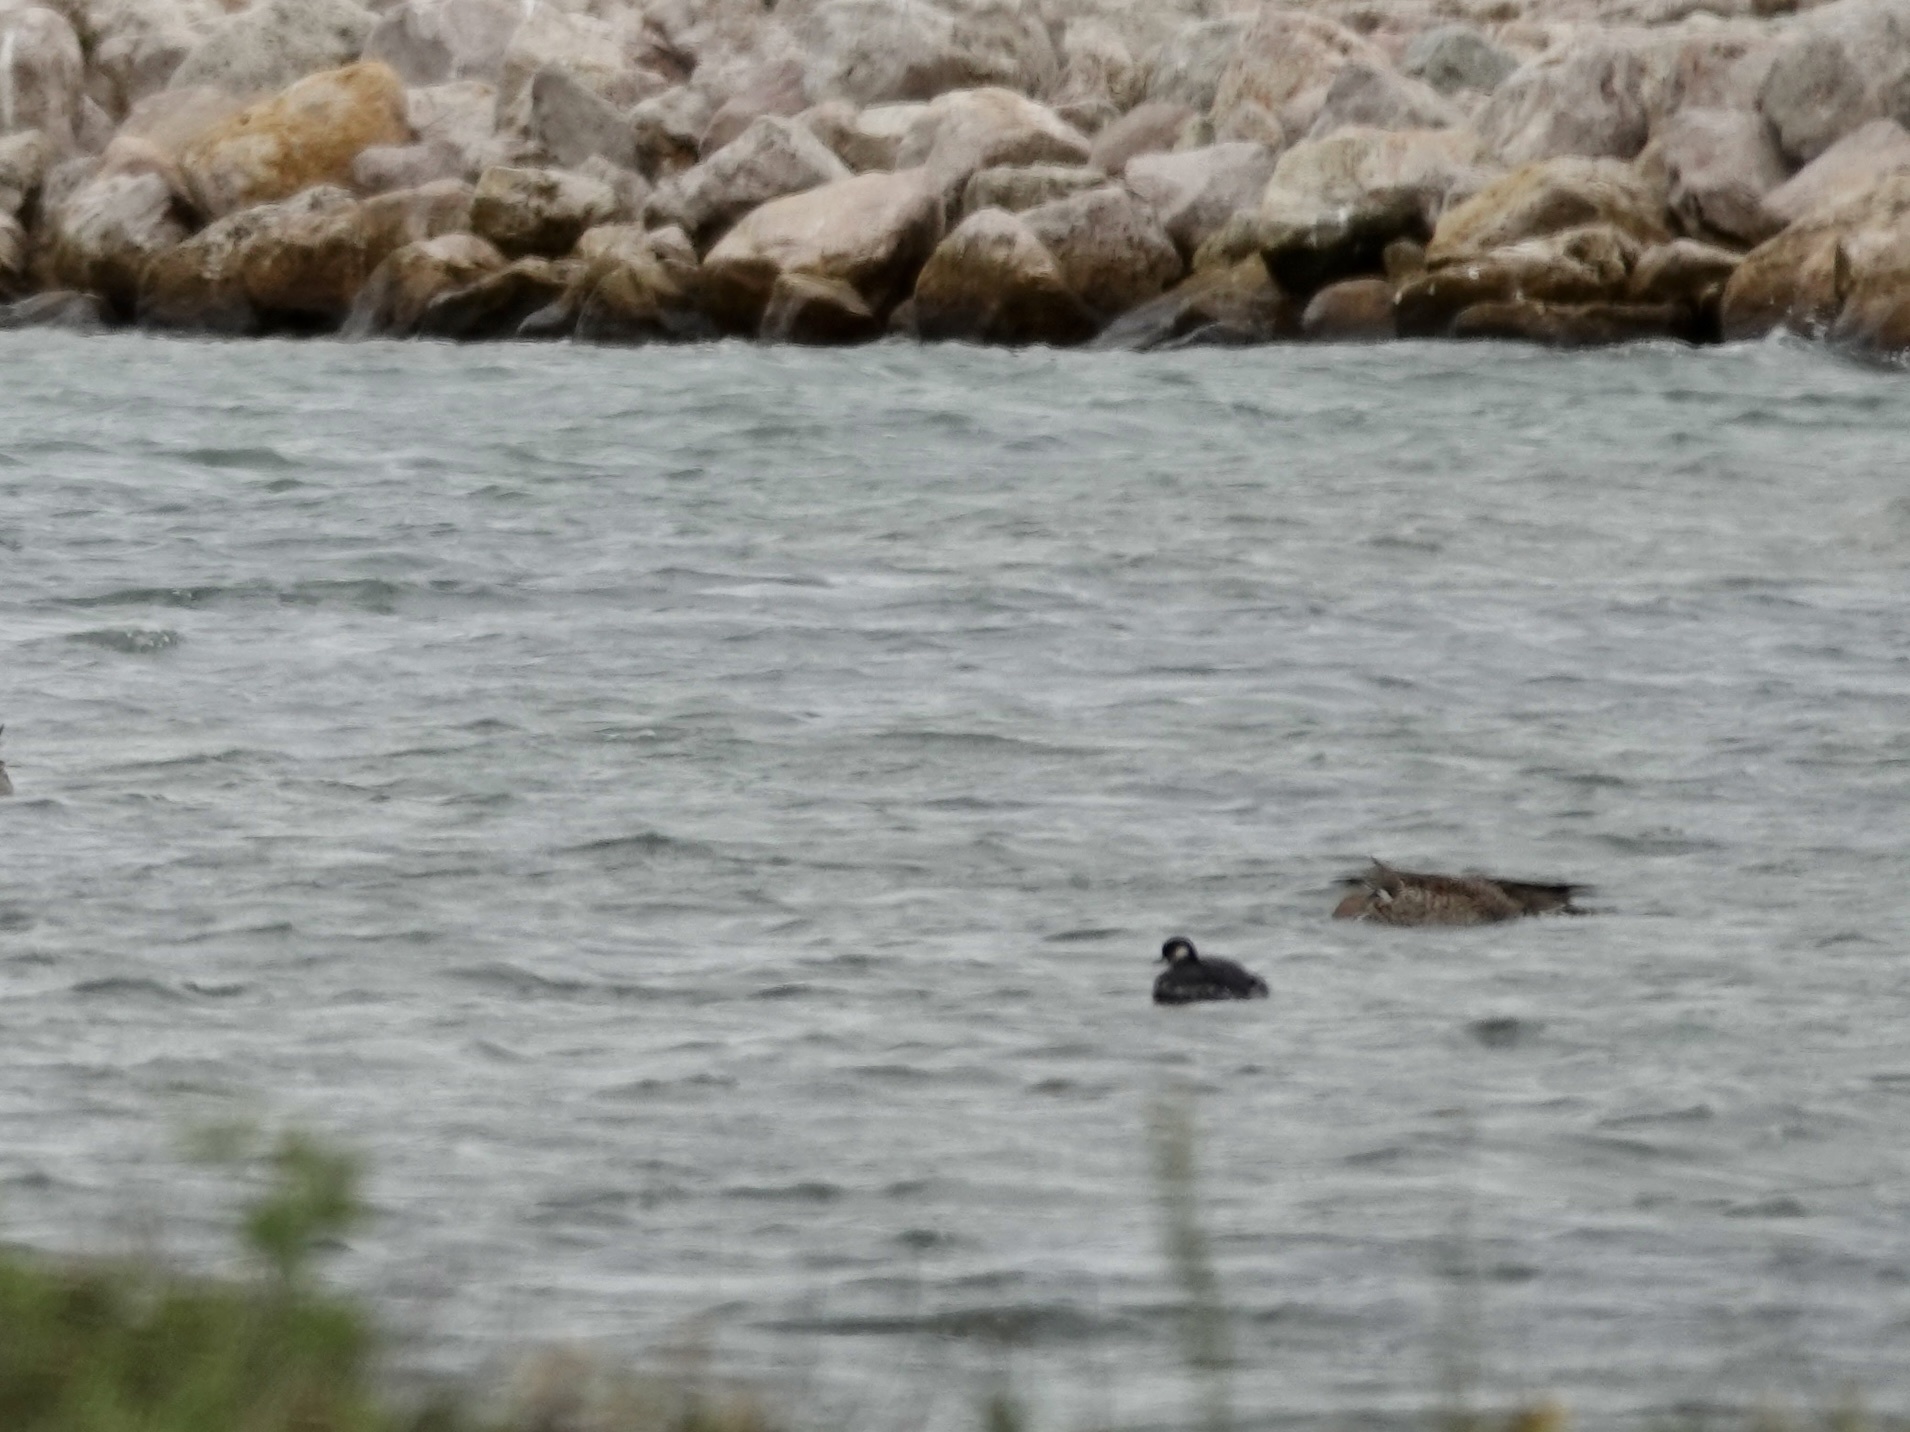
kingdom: Animalia
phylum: Chordata
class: Aves
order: Podicipediformes
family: Podicipedidae
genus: Podiceps
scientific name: Podiceps nigricollis
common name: Black-necked grebe
